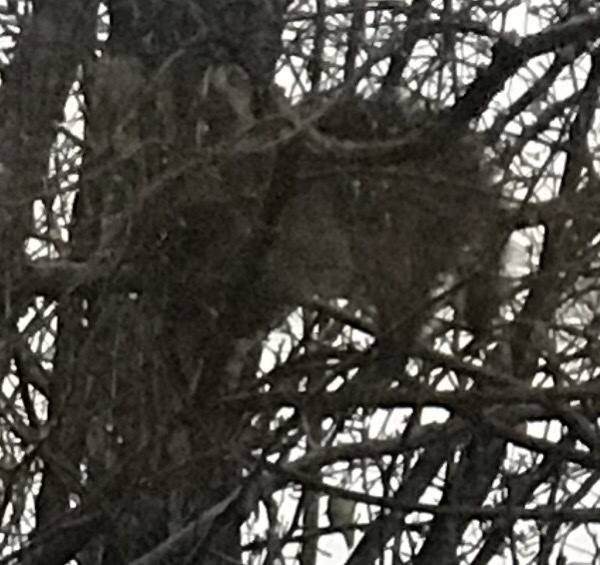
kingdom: Animalia
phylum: Chordata
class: Mammalia
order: Carnivora
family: Procyonidae
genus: Procyon
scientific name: Procyon lotor
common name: Raccoon
